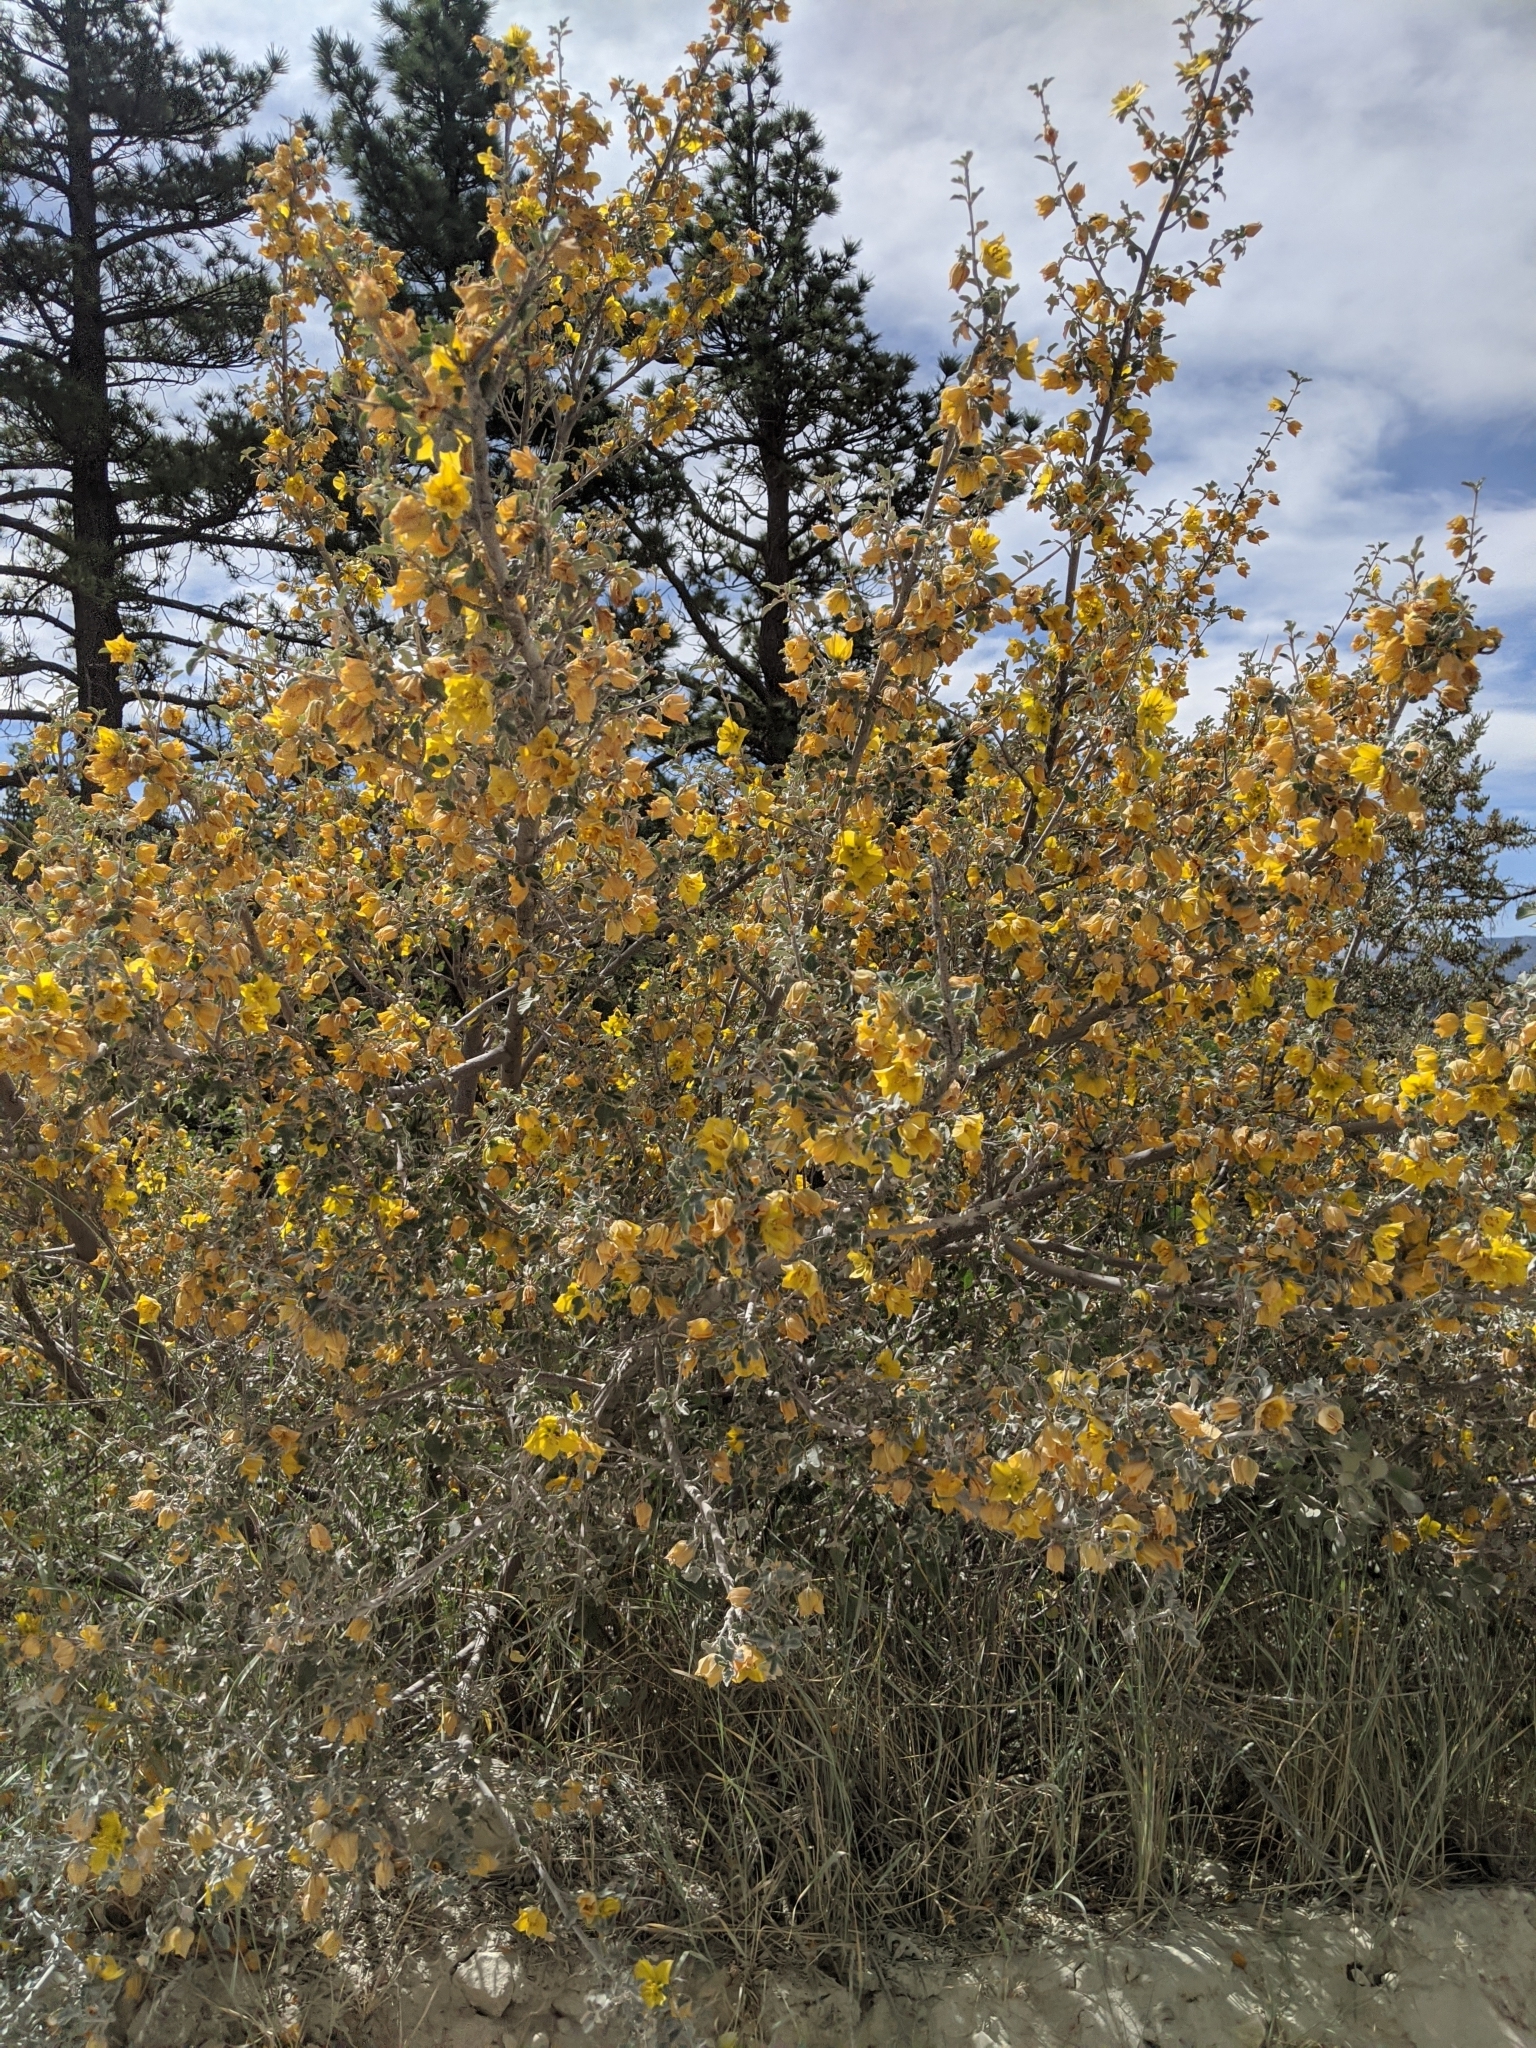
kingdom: Plantae
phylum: Tracheophyta
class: Magnoliopsida
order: Malvales
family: Malvaceae
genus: Fremontodendron
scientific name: Fremontodendron californicum
